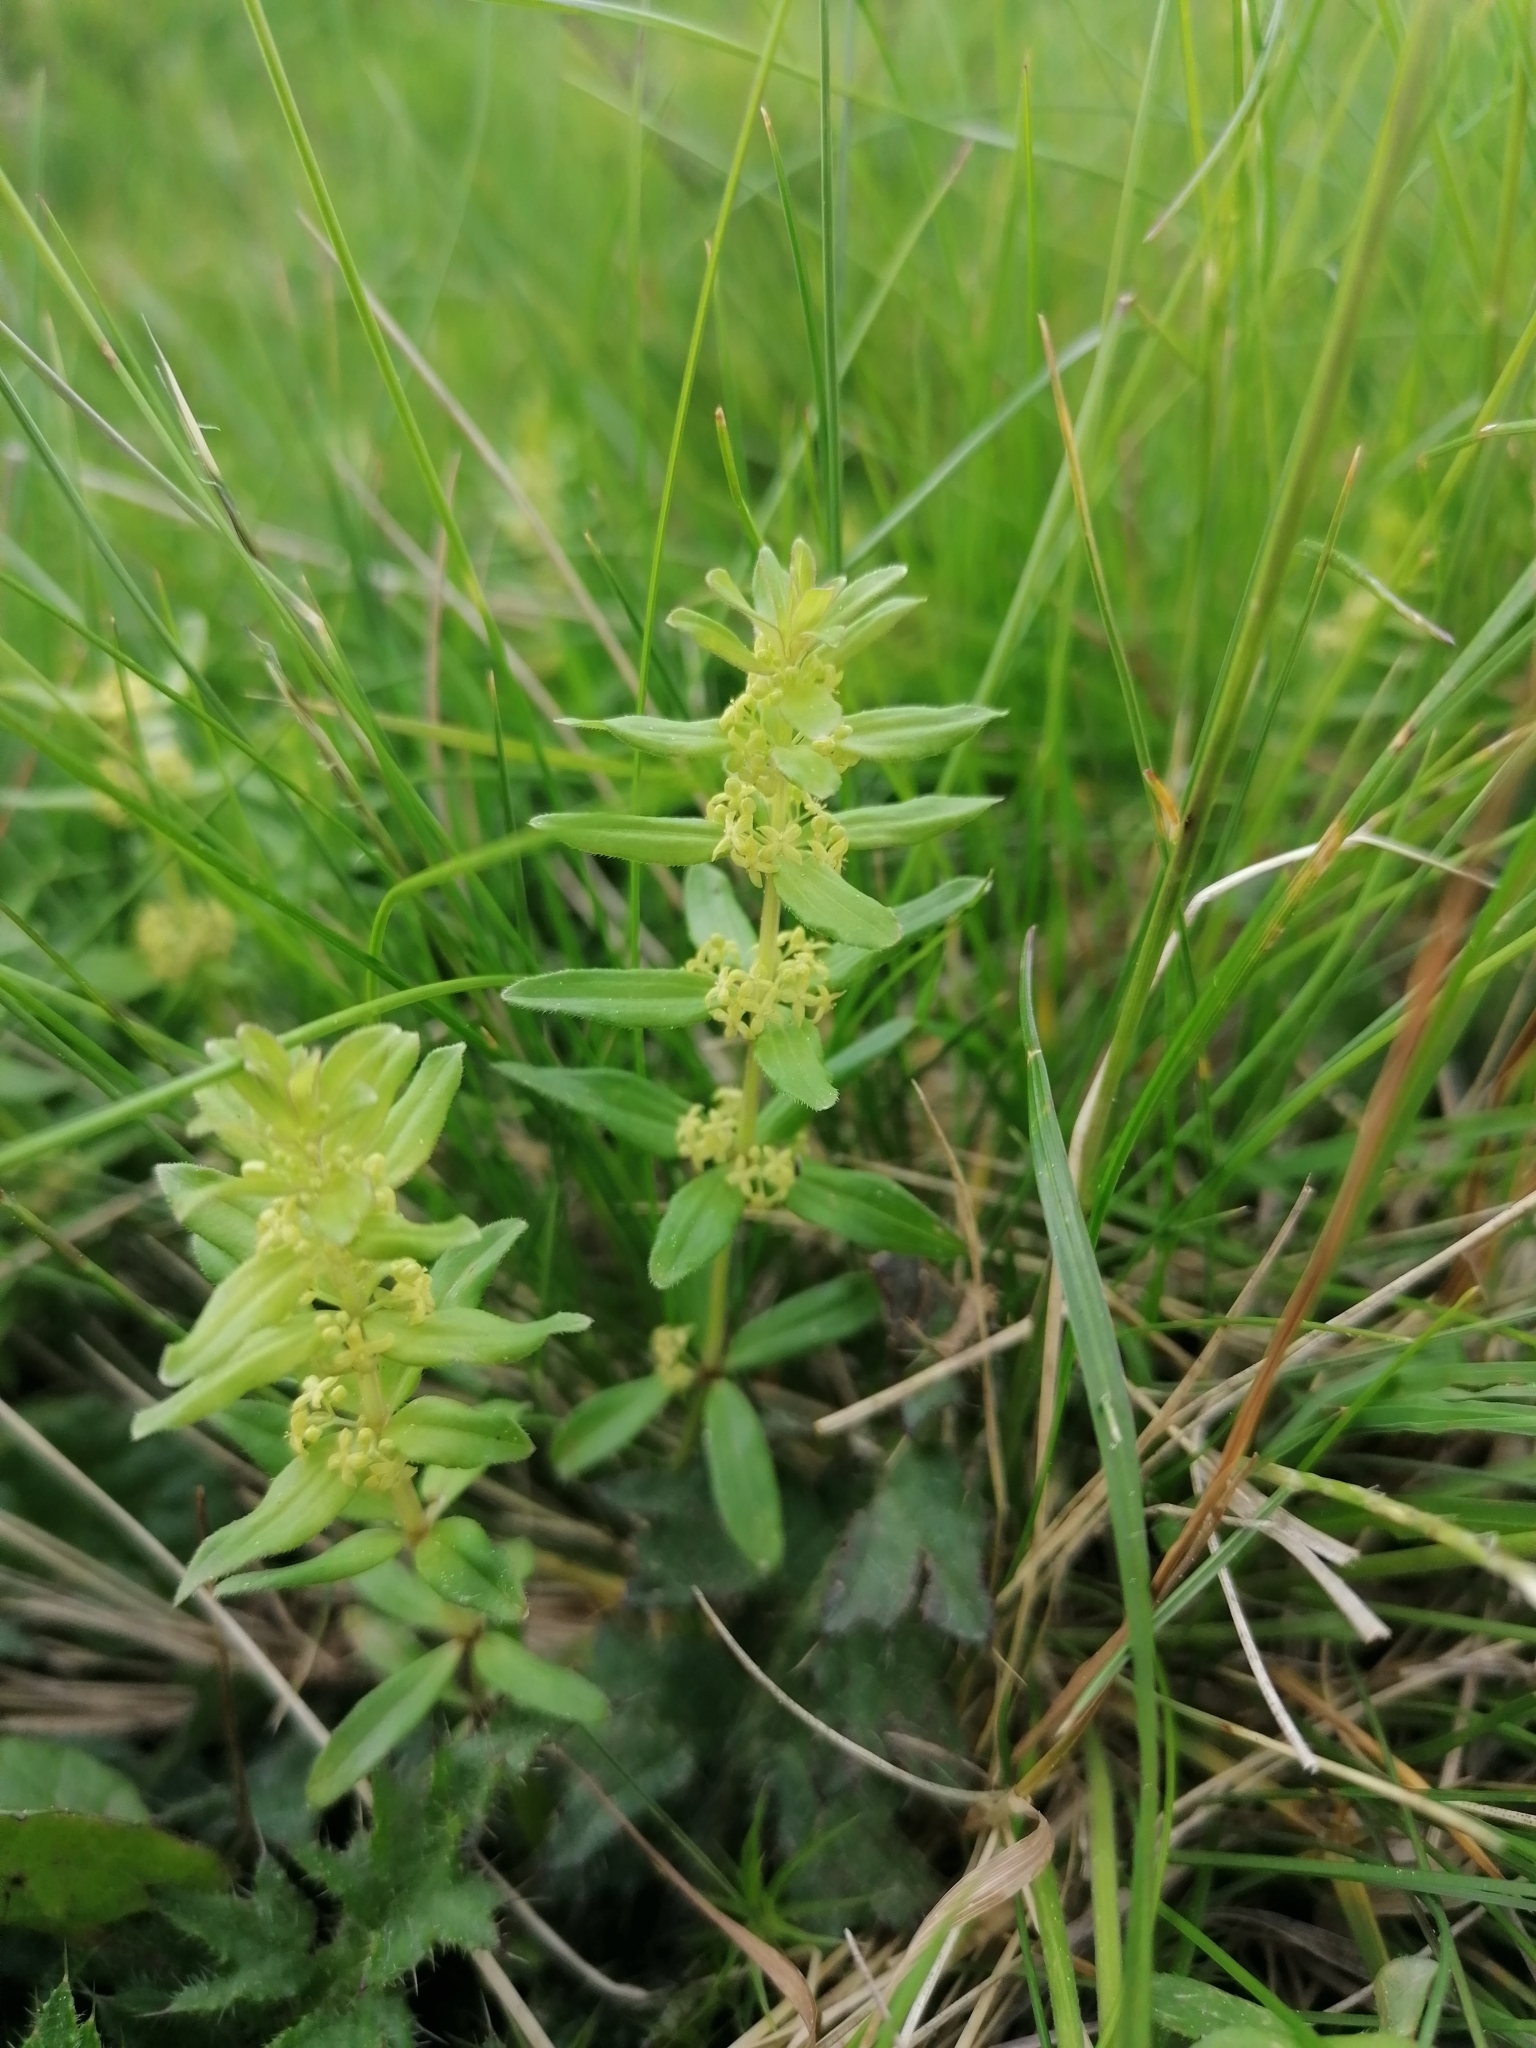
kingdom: Plantae
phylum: Tracheophyta
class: Magnoliopsida
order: Gentianales
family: Rubiaceae
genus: Cruciata
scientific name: Cruciata glabra
